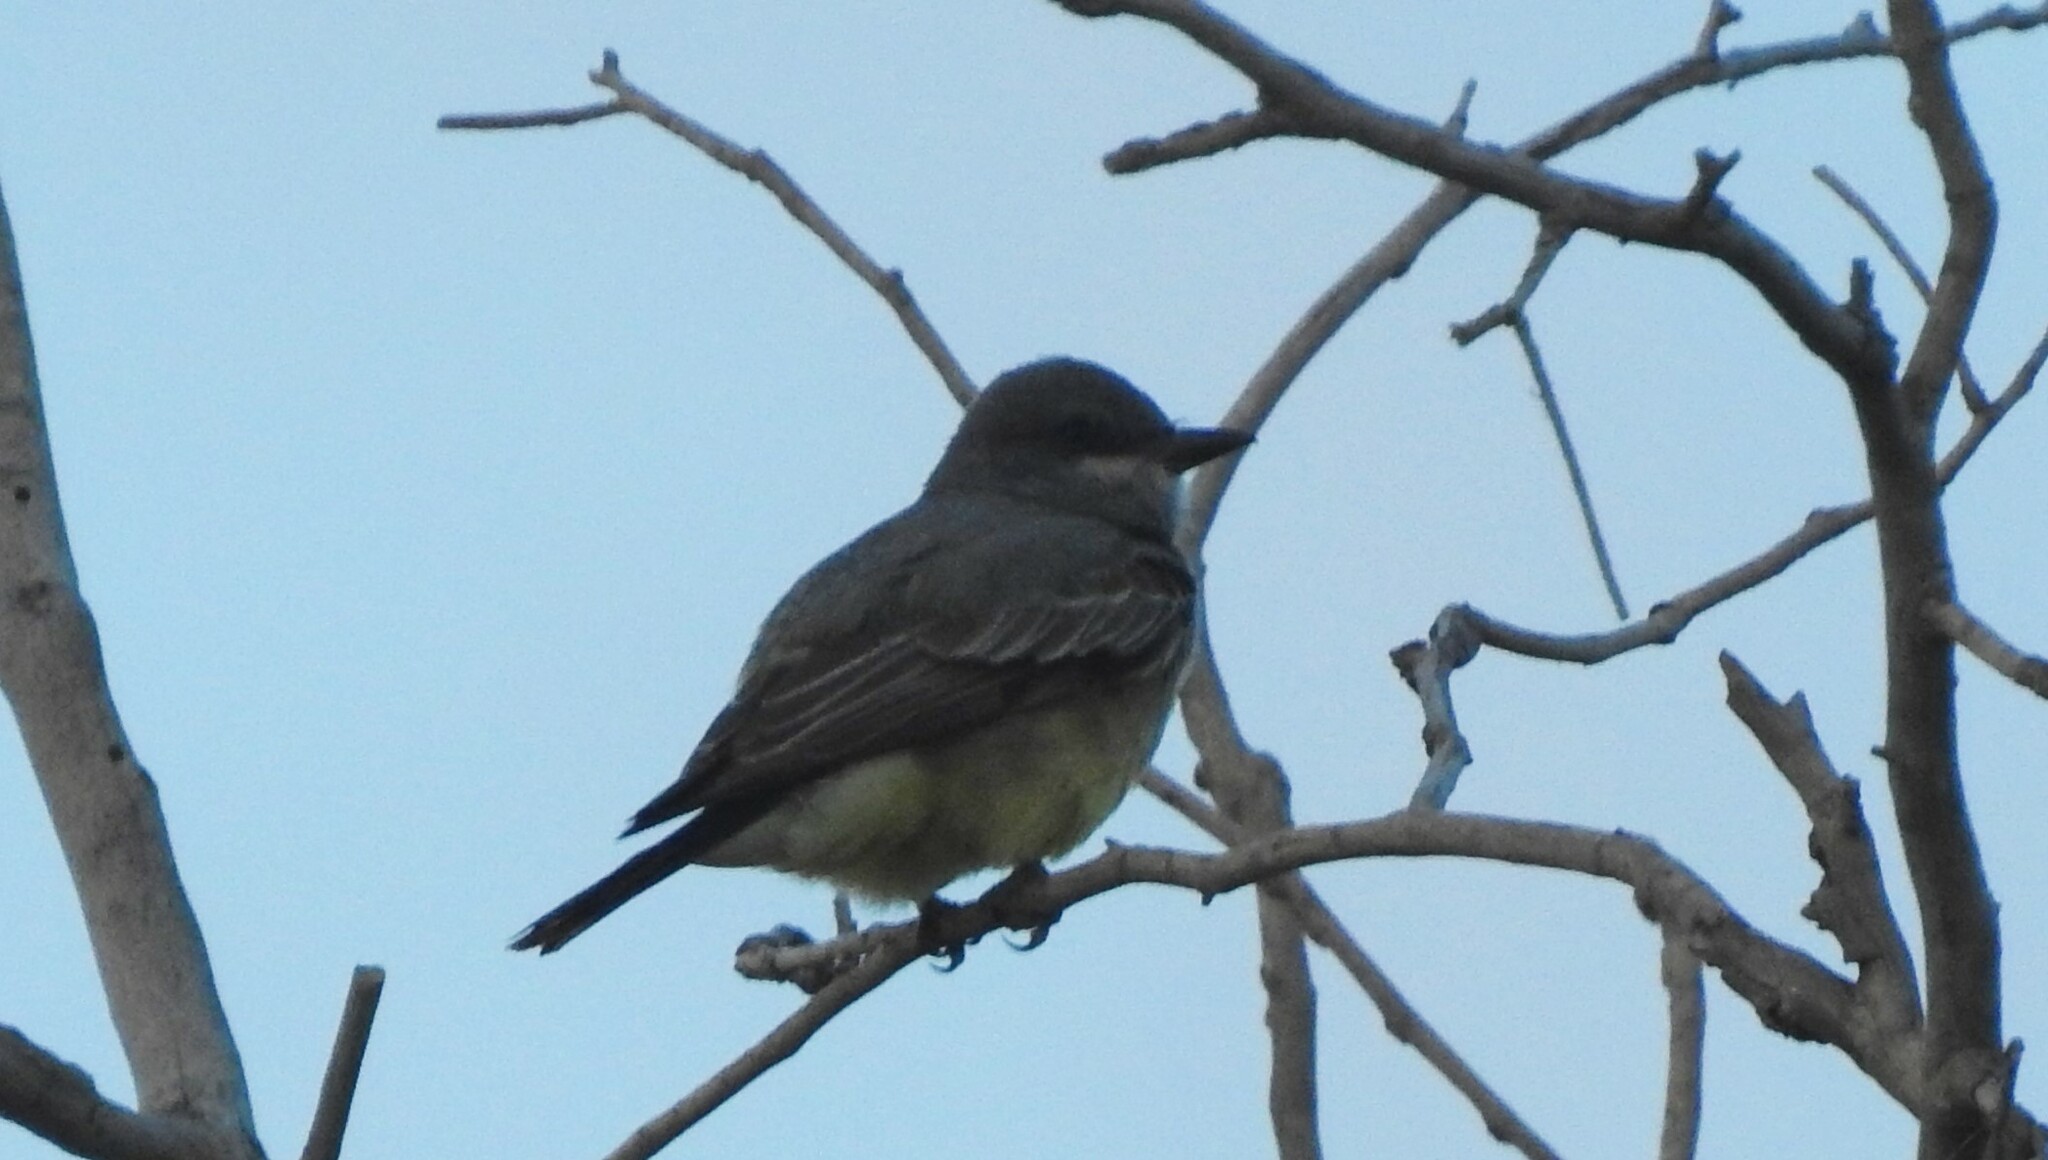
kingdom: Animalia
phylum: Chordata
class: Aves
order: Passeriformes
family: Tyrannidae
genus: Tyrannus
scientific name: Tyrannus vociferans
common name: Cassin's kingbird
